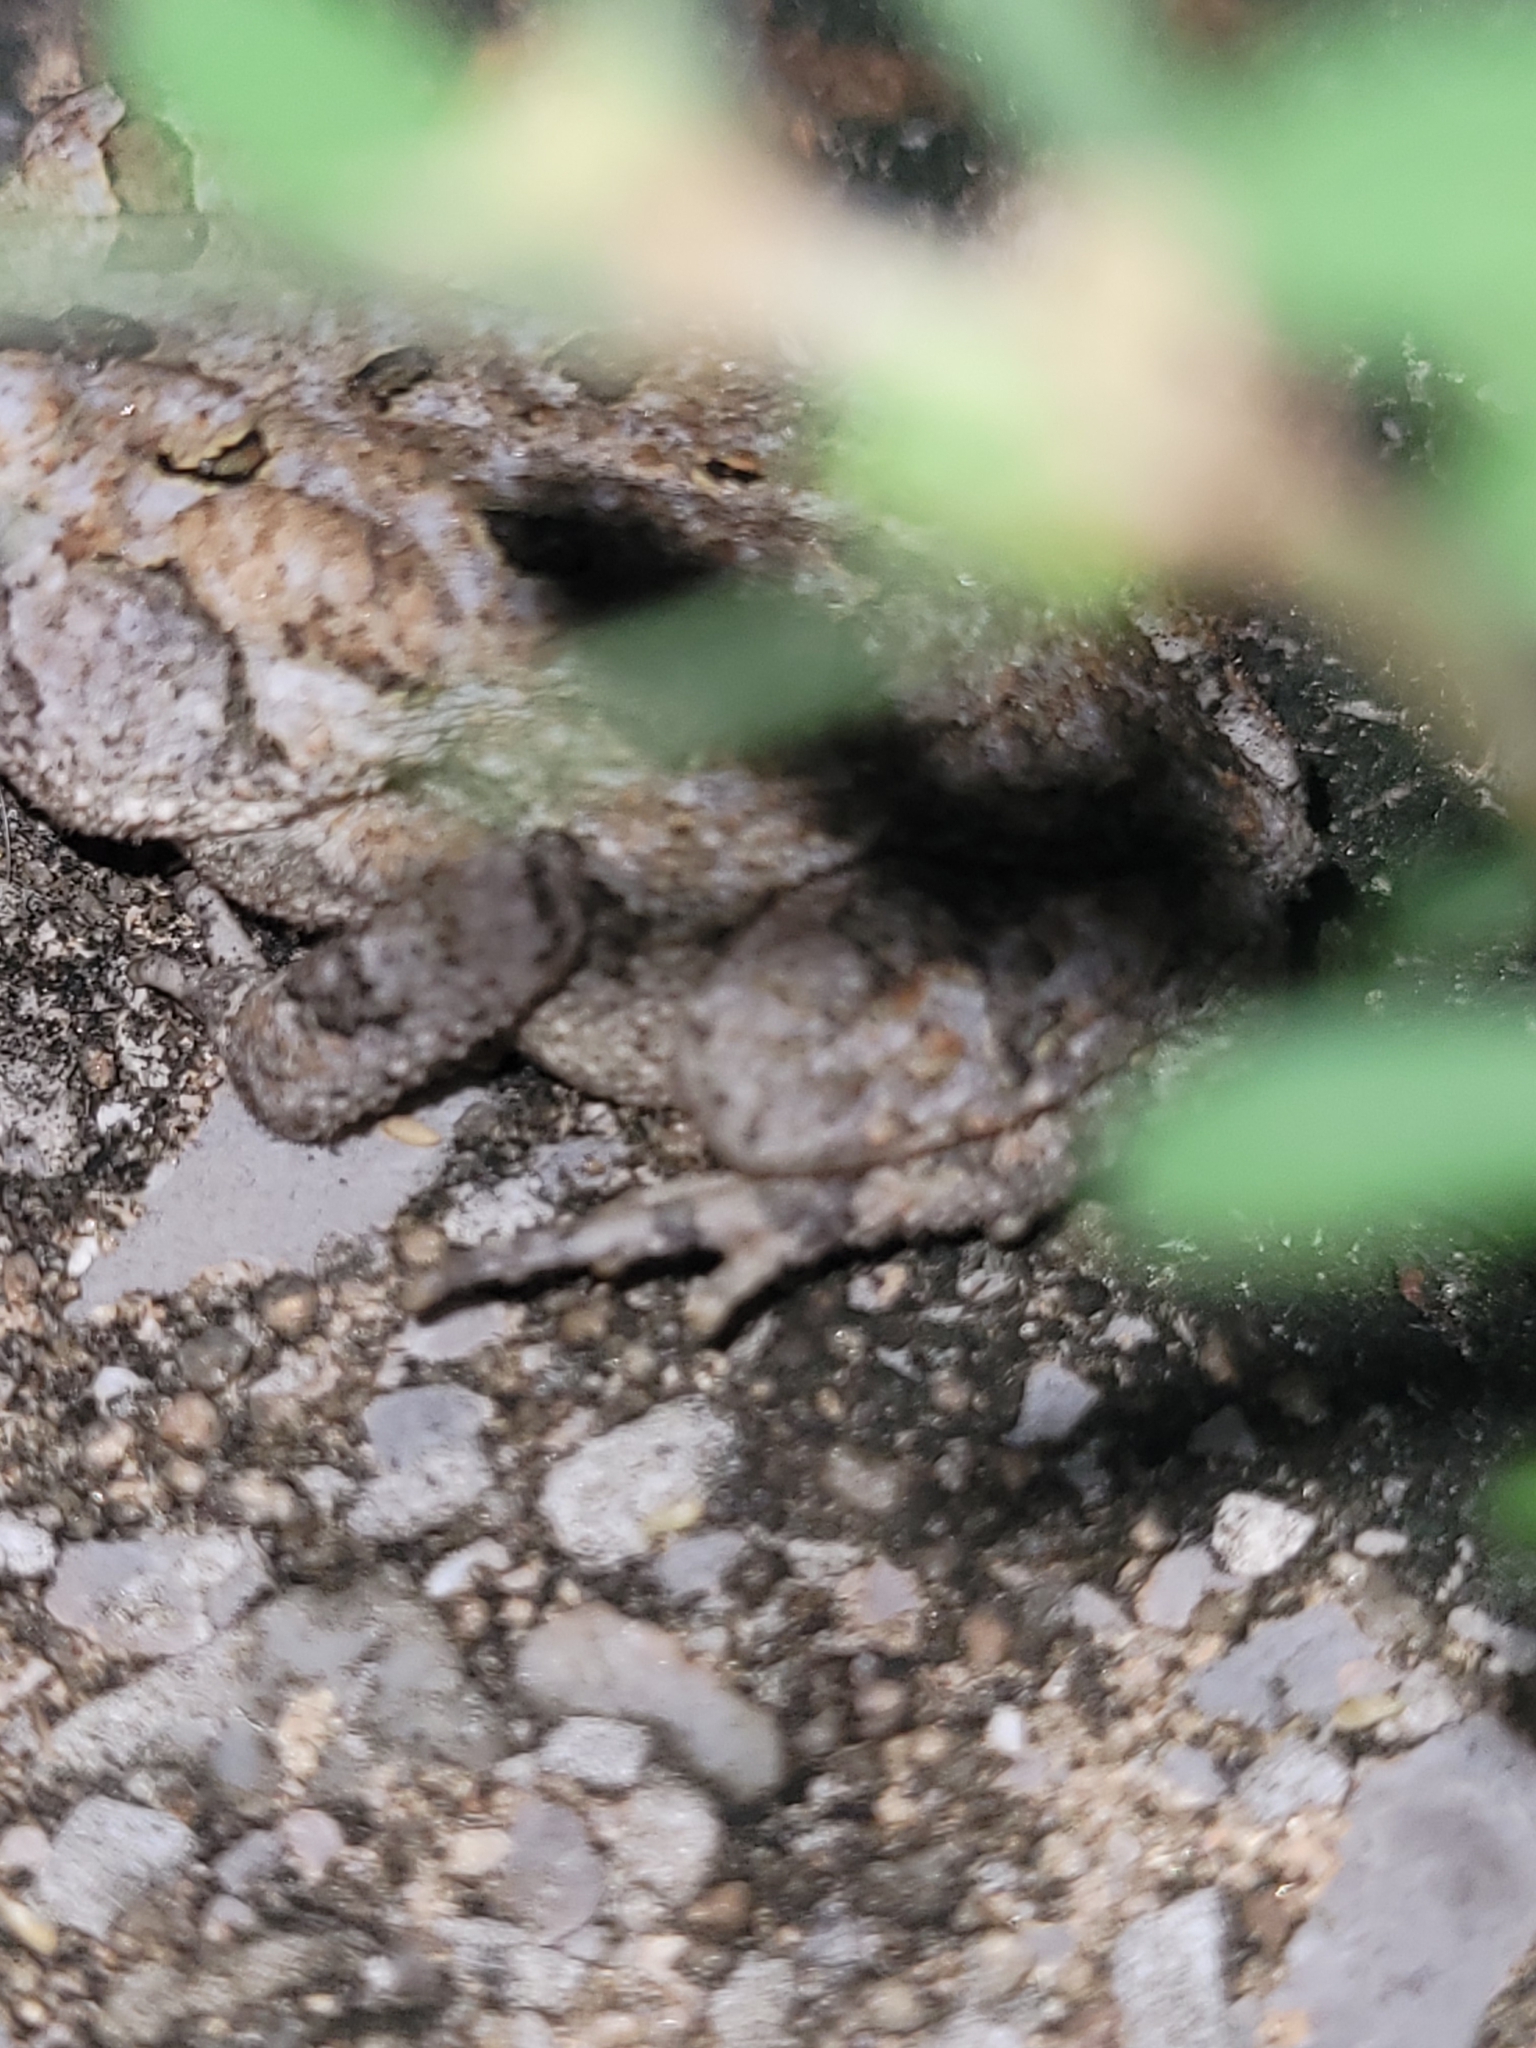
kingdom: Animalia
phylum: Chordata
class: Amphibia
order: Anura
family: Bufonidae
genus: Anaxyrus
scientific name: Anaxyrus terrestris
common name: Southern toad
